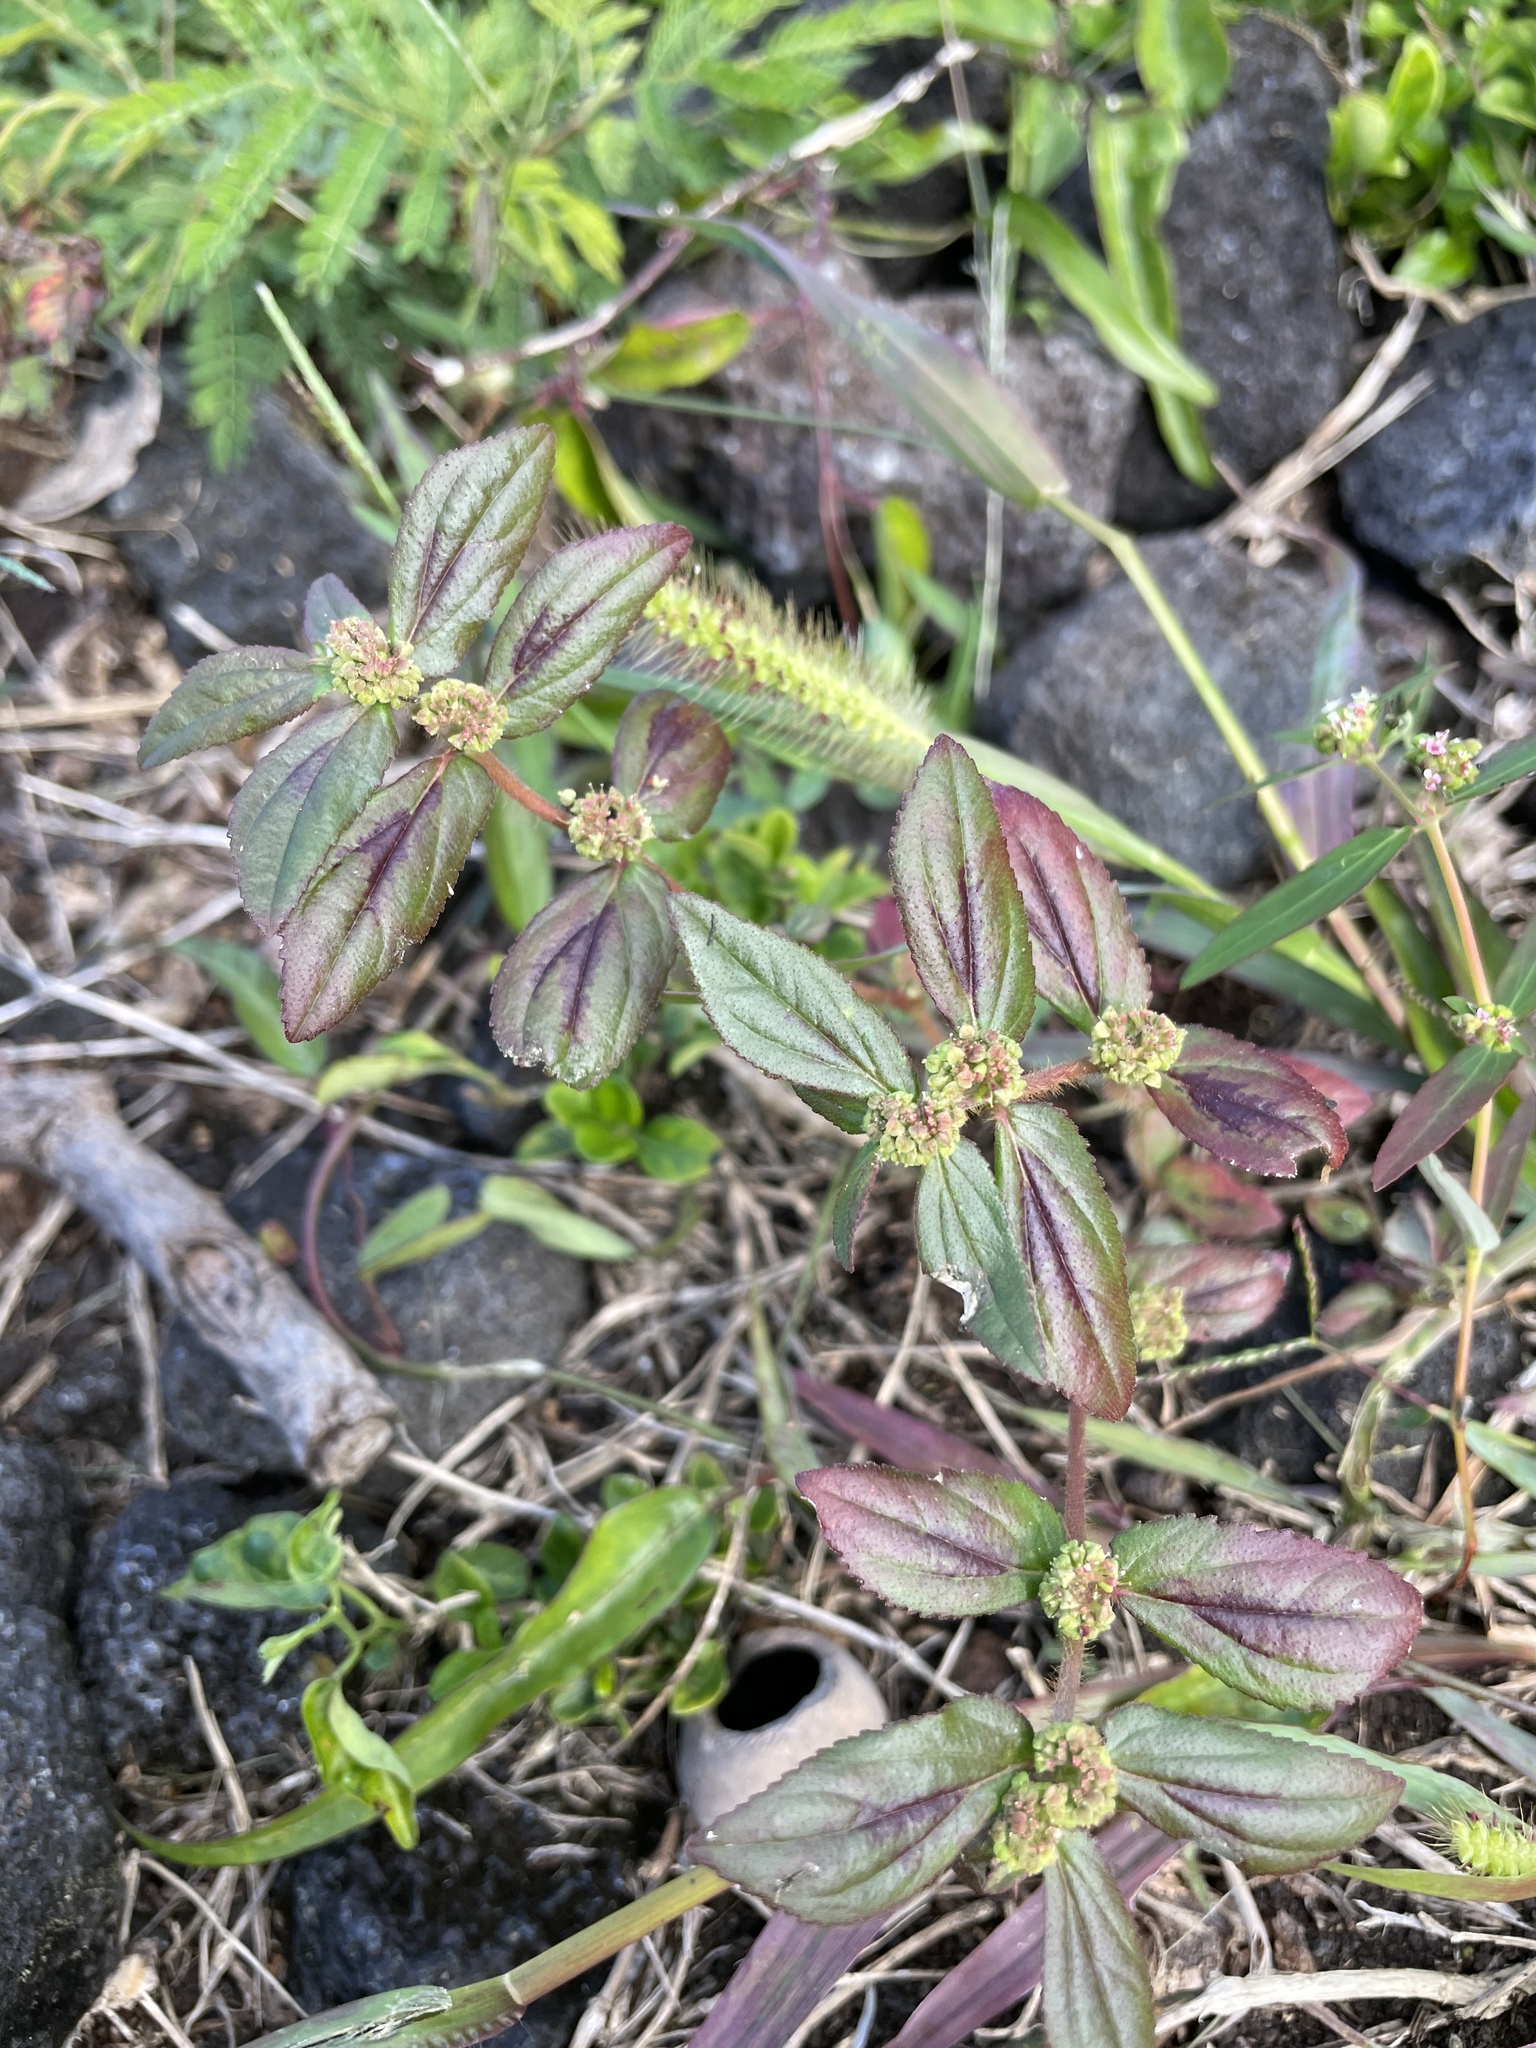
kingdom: Plantae
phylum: Tracheophyta
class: Magnoliopsida
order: Malpighiales
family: Euphorbiaceae
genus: Euphorbia
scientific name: Euphorbia hirta
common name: Pillpod sandmat
